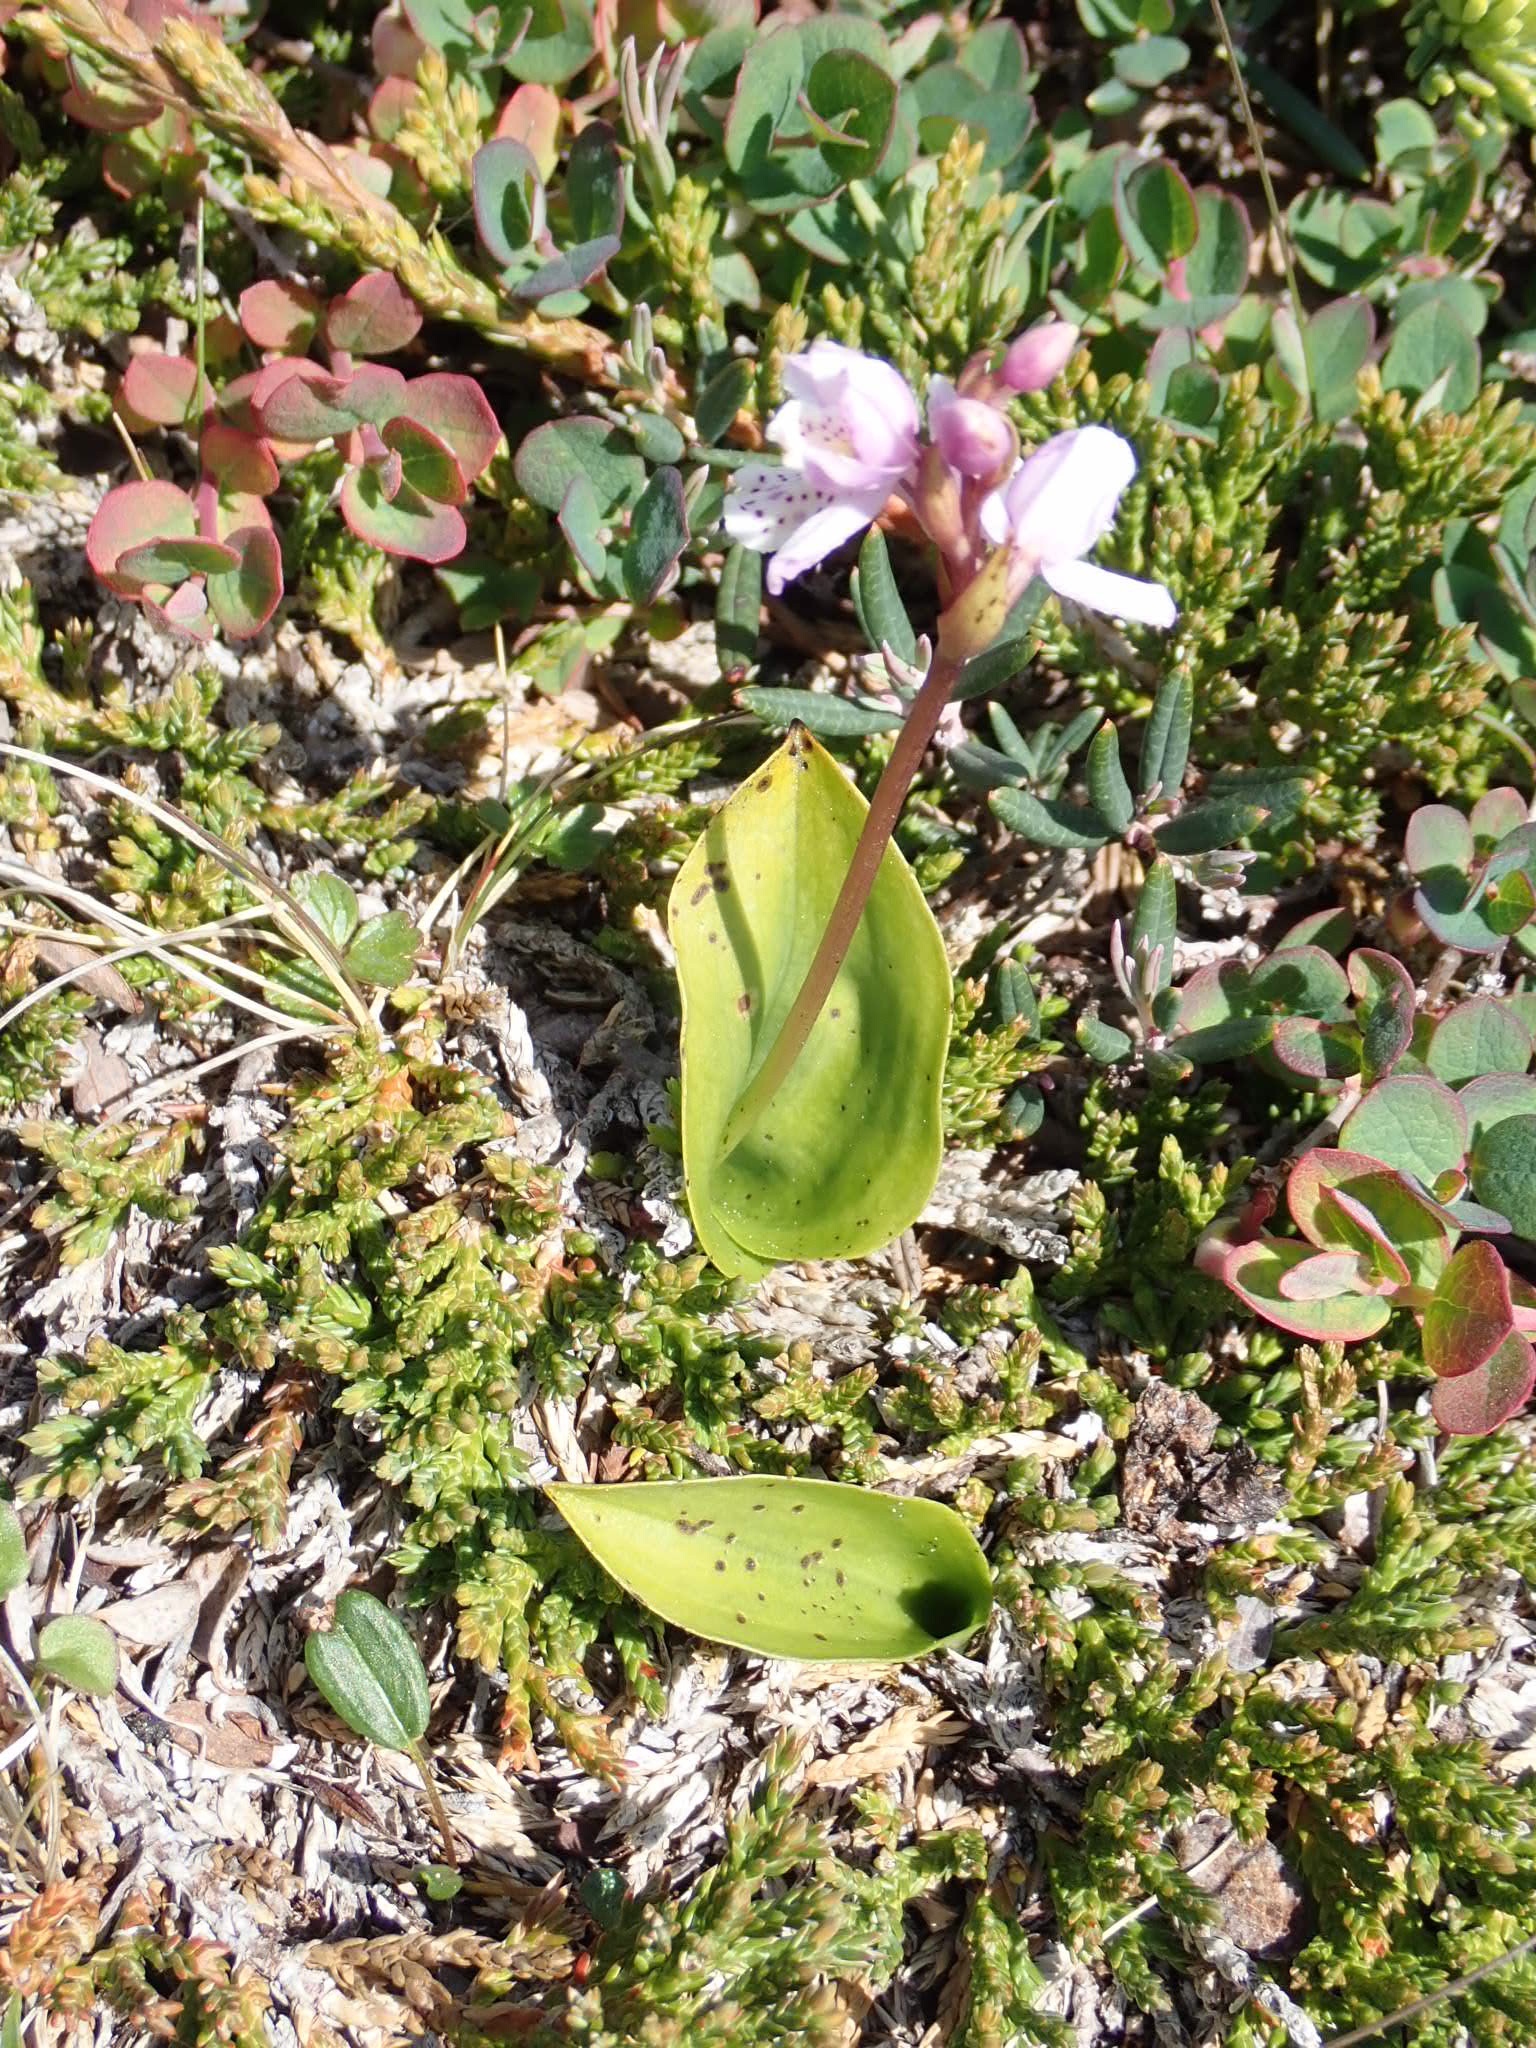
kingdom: Plantae
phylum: Tracheophyta
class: Liliopsida
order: Asparagales
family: Orchidaceae
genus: Galearis
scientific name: Galearis rotundifolia
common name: One-leaved orchis
